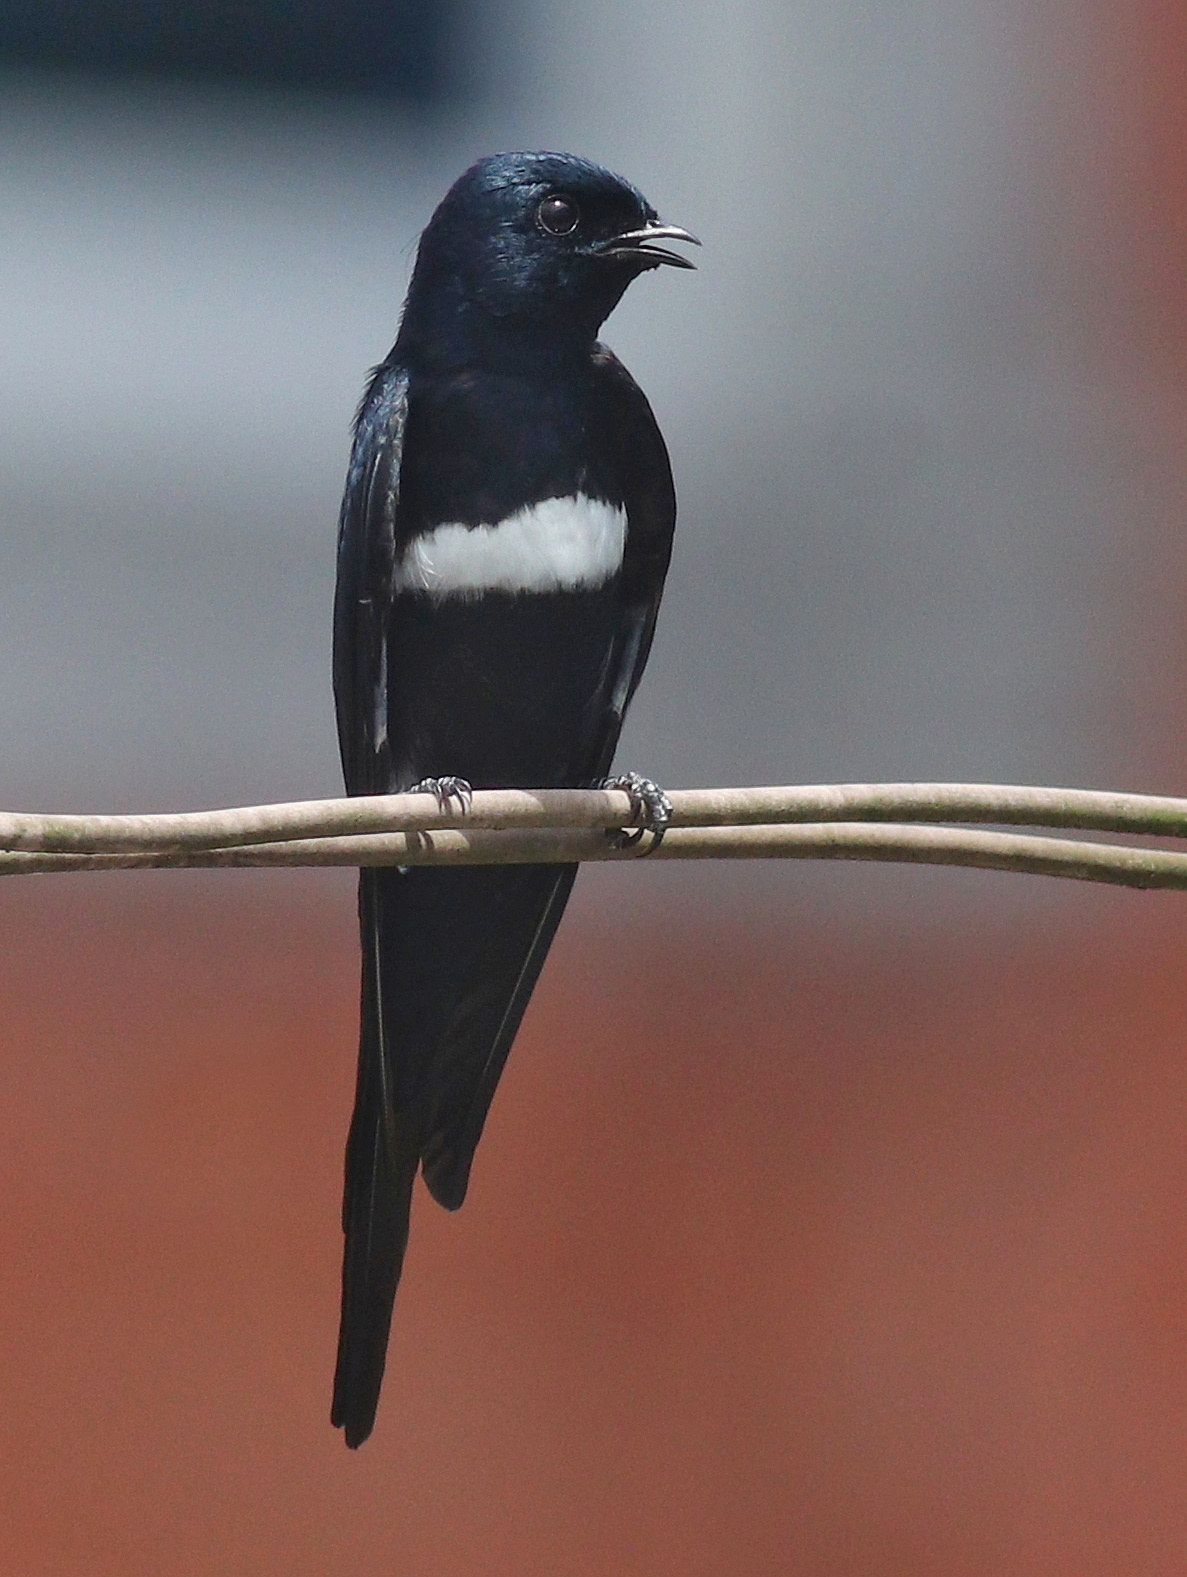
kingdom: Animalia
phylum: Chordata
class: Aves
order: Passeriformes
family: Hirundinidae
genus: Atticora
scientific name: Atticora fasciata
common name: White-banded swallow
